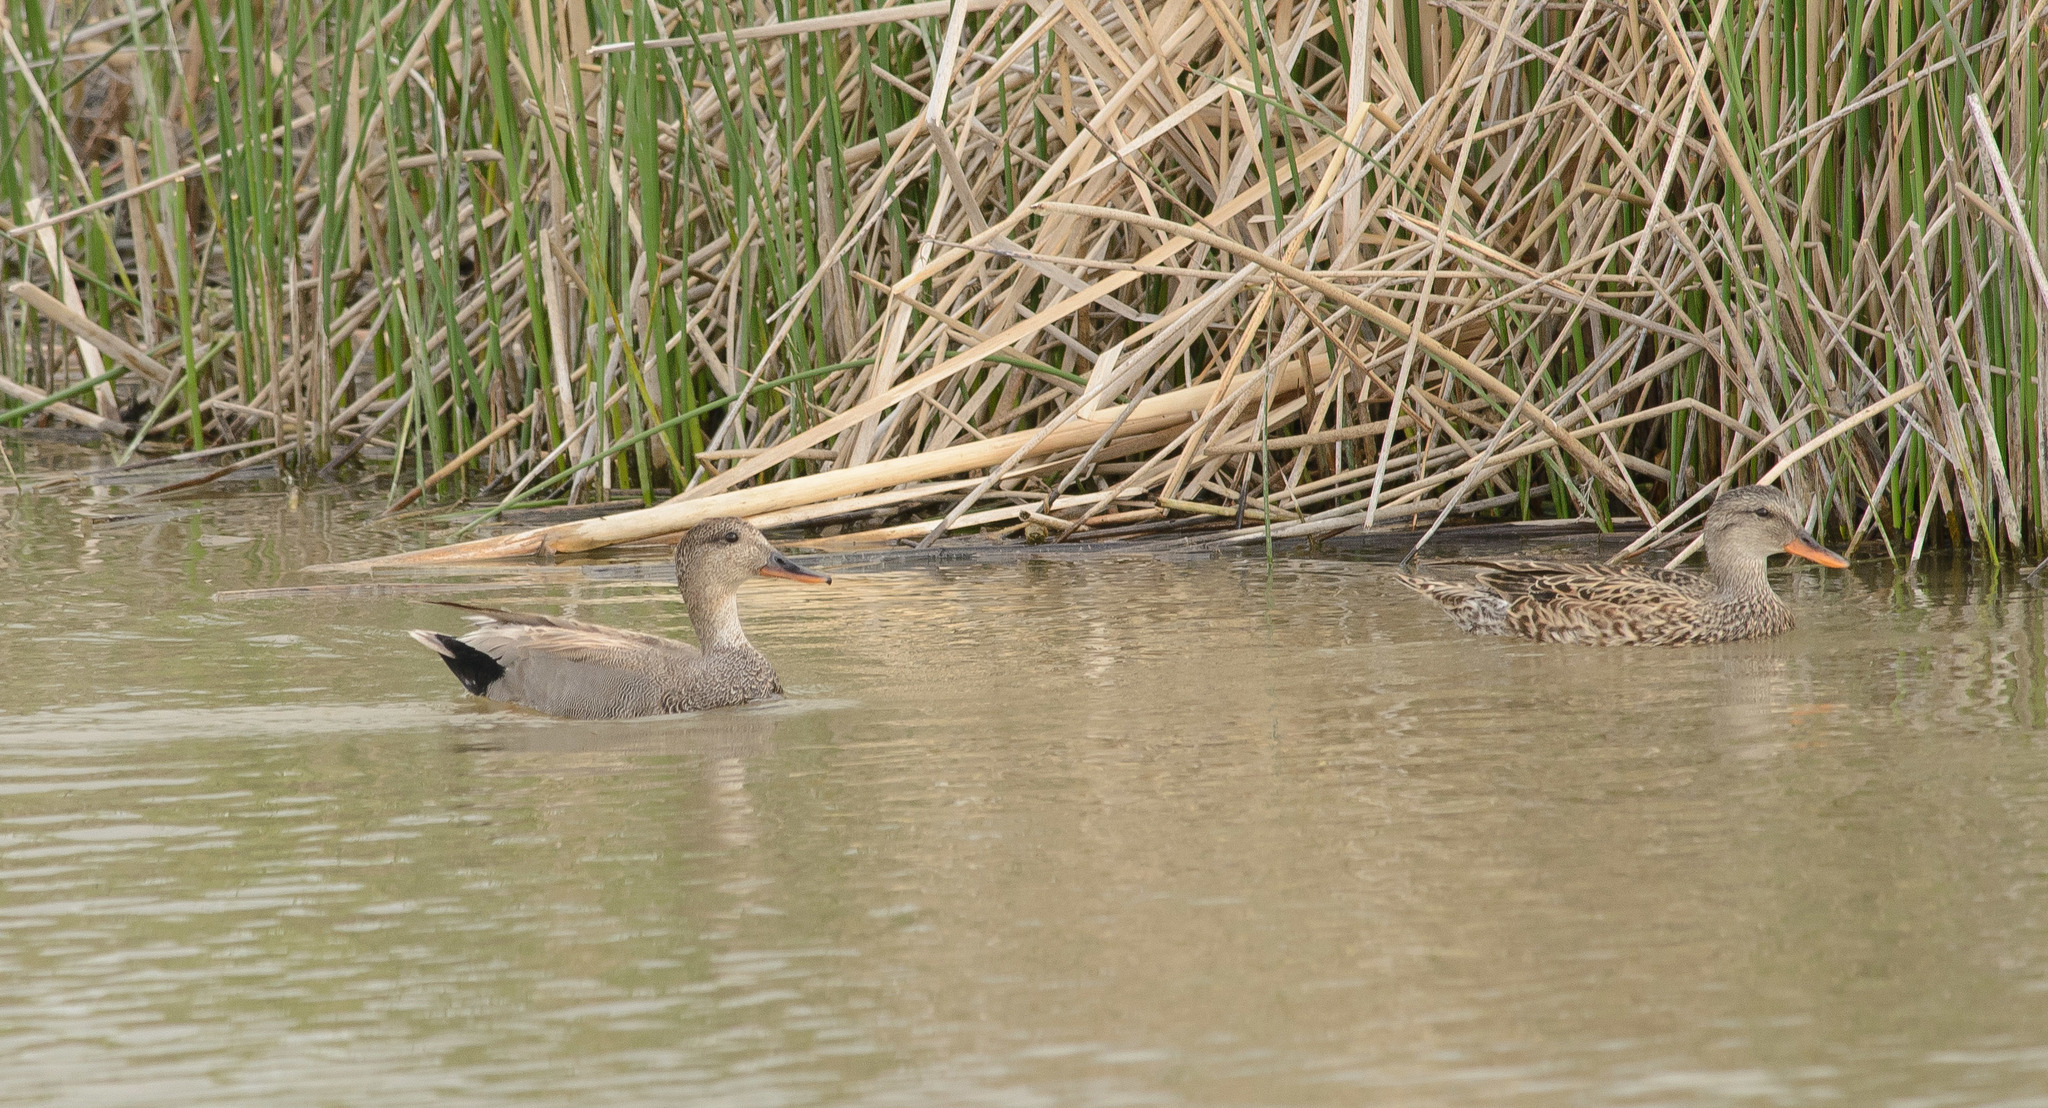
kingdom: Animalia
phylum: Chordata
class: Aves
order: Anseriformes
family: Anatidae
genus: Mareca
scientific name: Mareca strepera
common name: Gadwall
